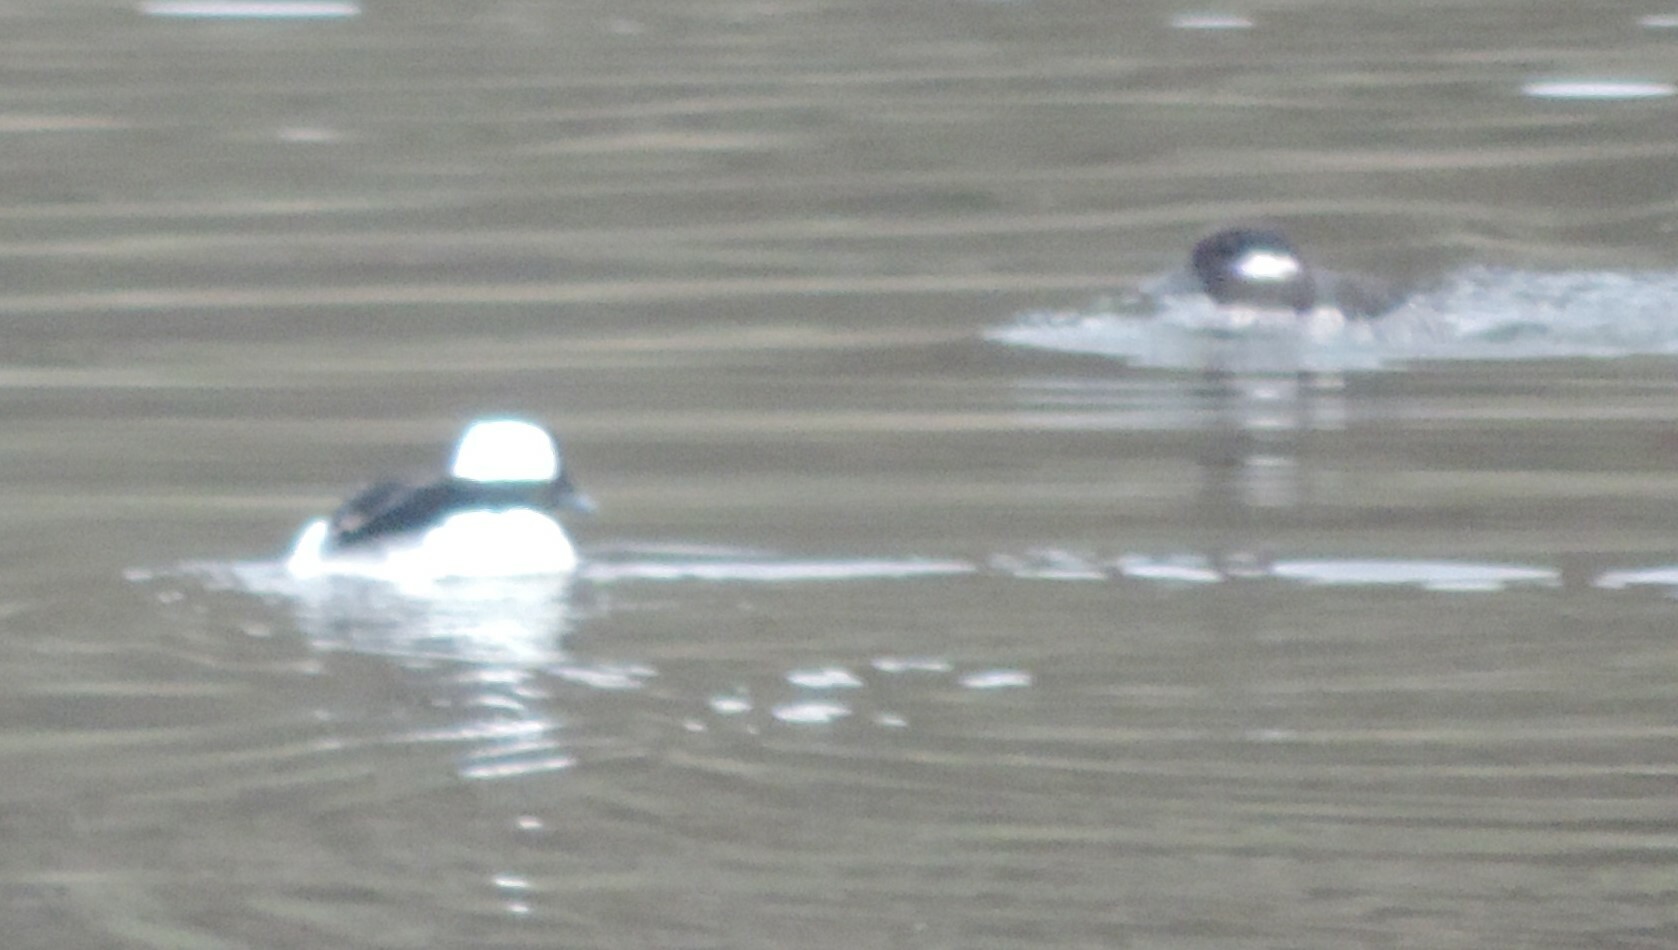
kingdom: Animalia
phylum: Chordata
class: Aves
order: Anseriformes
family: Anatidae
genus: Bucephala
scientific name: Bucephala albeola
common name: Bufflehead
